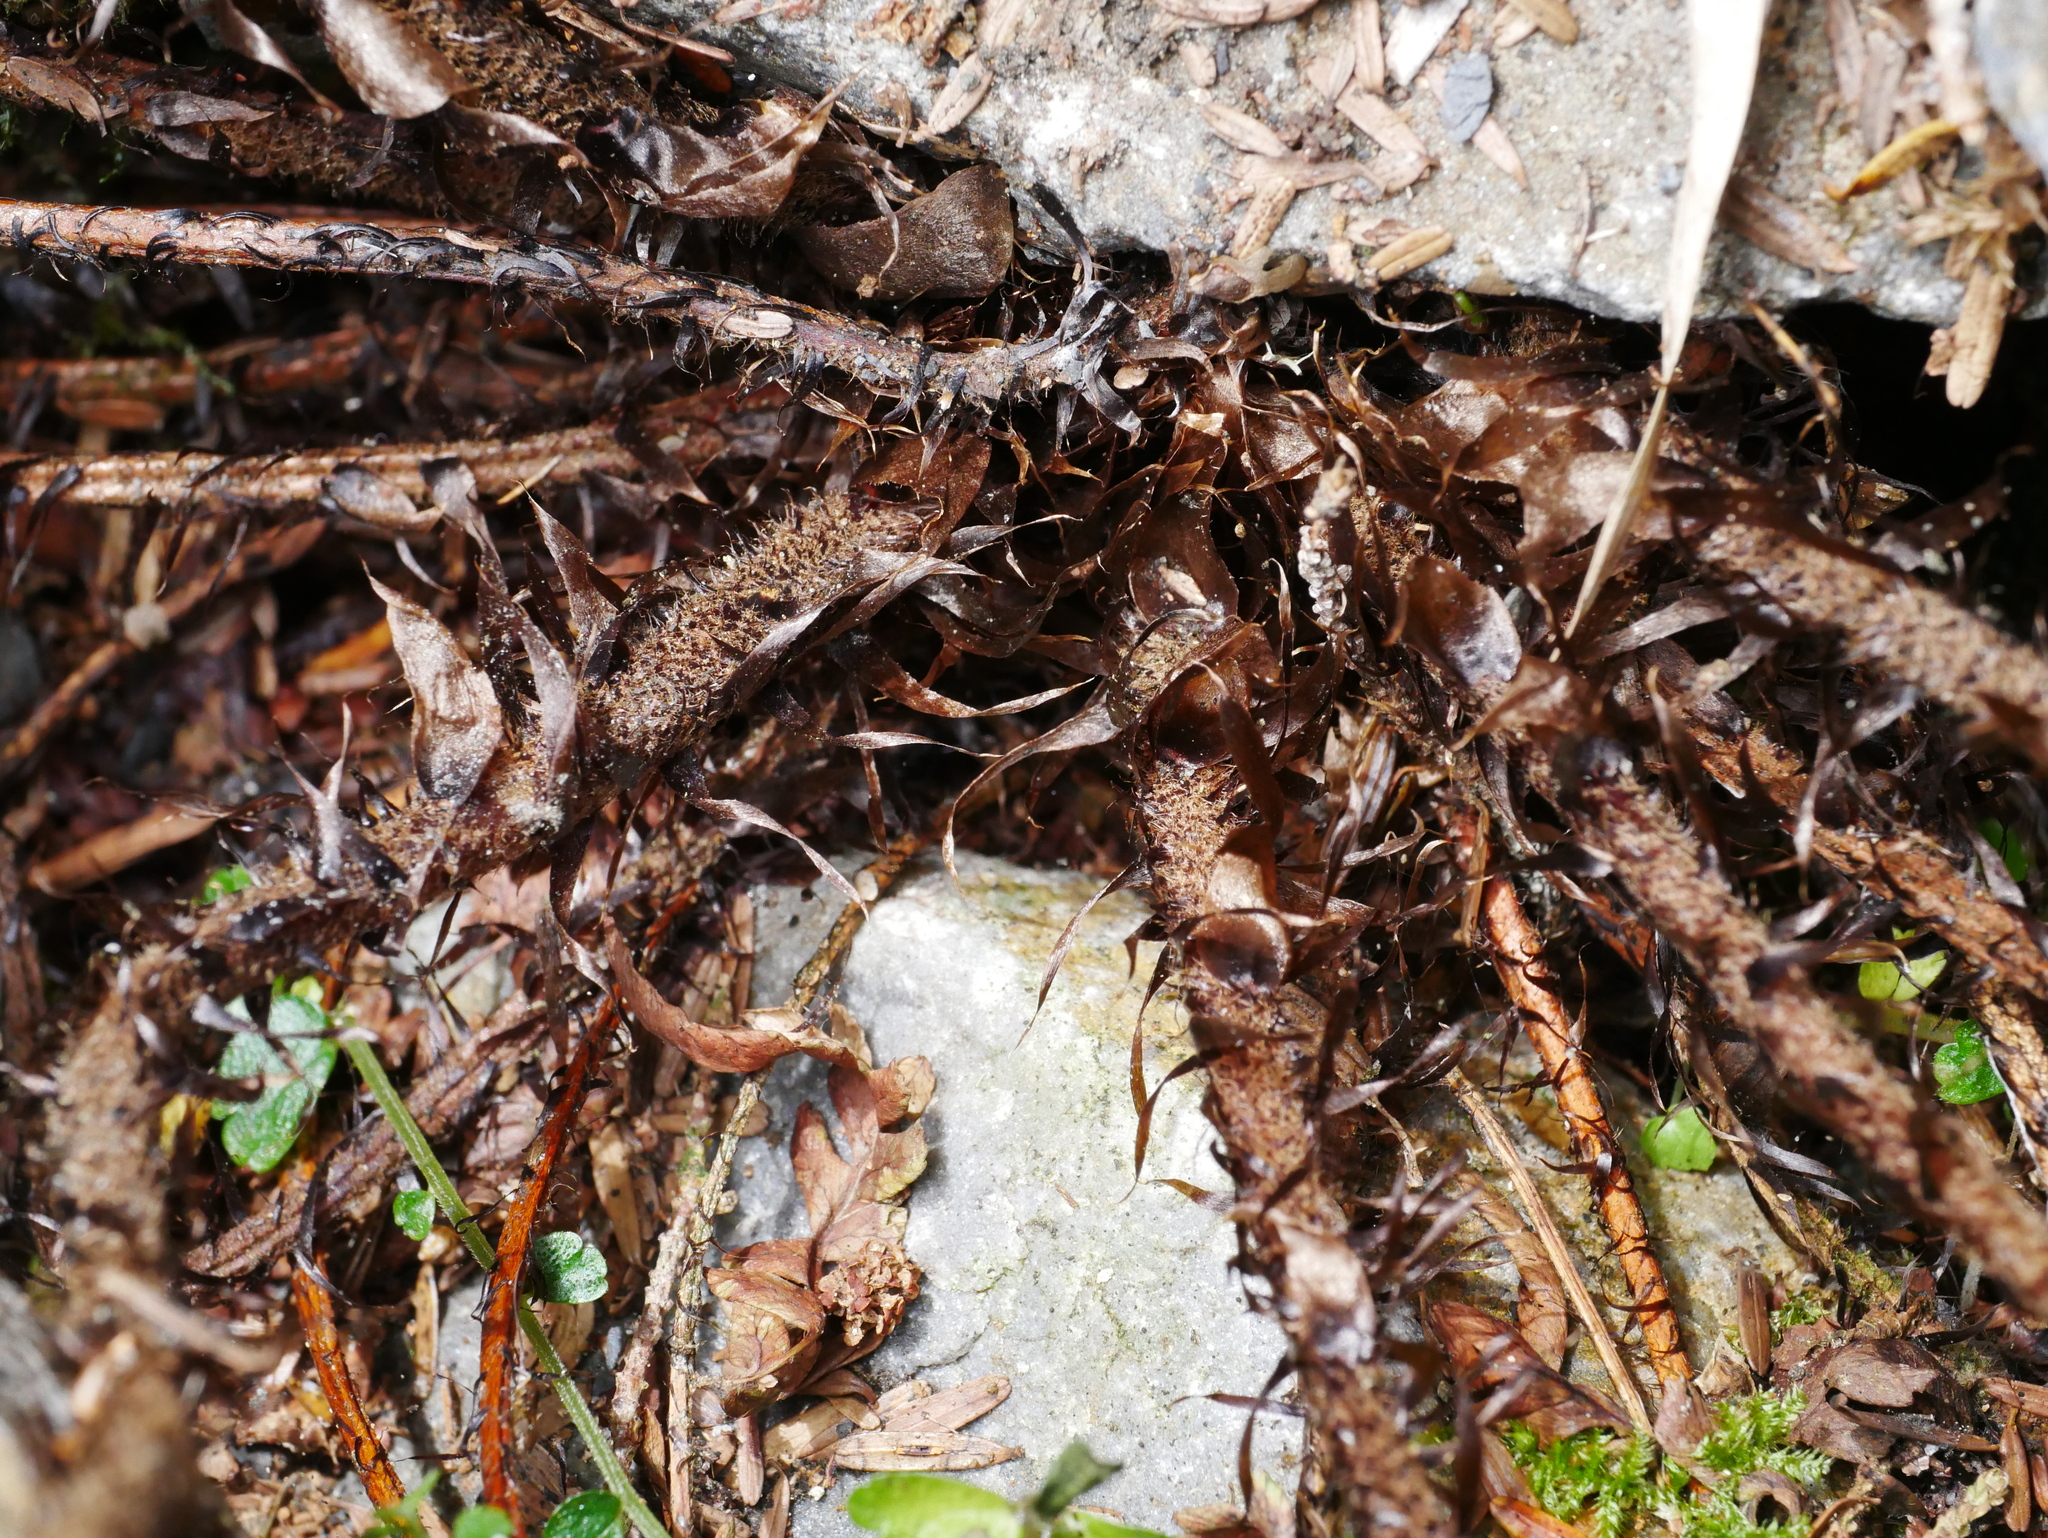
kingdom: Plantae
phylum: Tracheophyta
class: Polypodiopsida
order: Polypodiales
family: Dryopteridaceae
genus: Dryopteris
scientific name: Dryopteris lepidopoda
